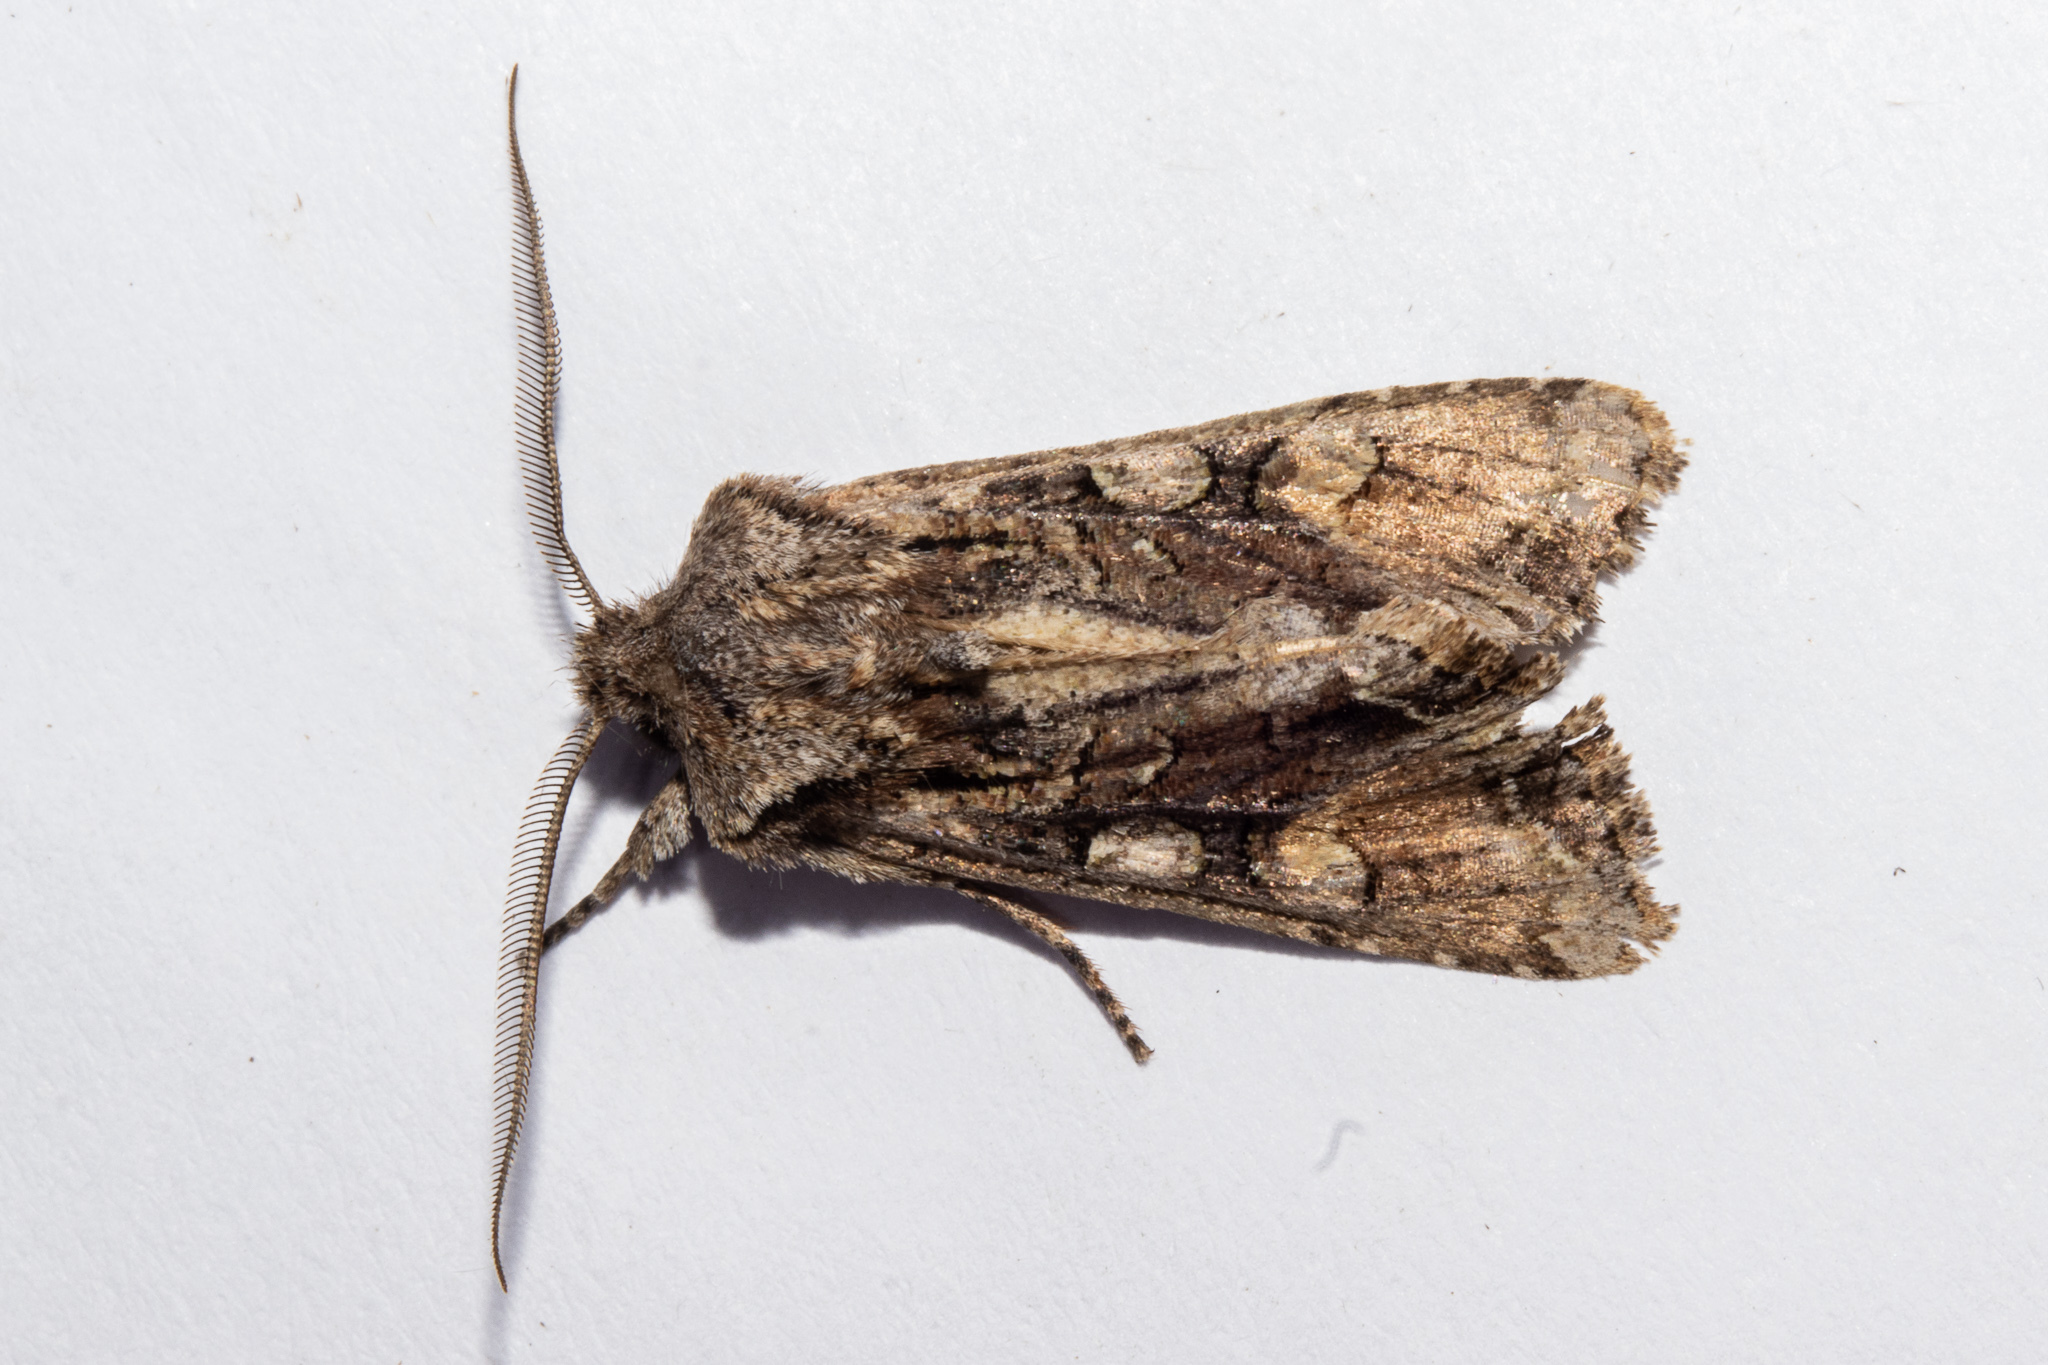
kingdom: Animalia
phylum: Arthropoda
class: Insecta
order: Lepidoptera
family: Noctuidae
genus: Ichneutica
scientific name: Ichneutica
